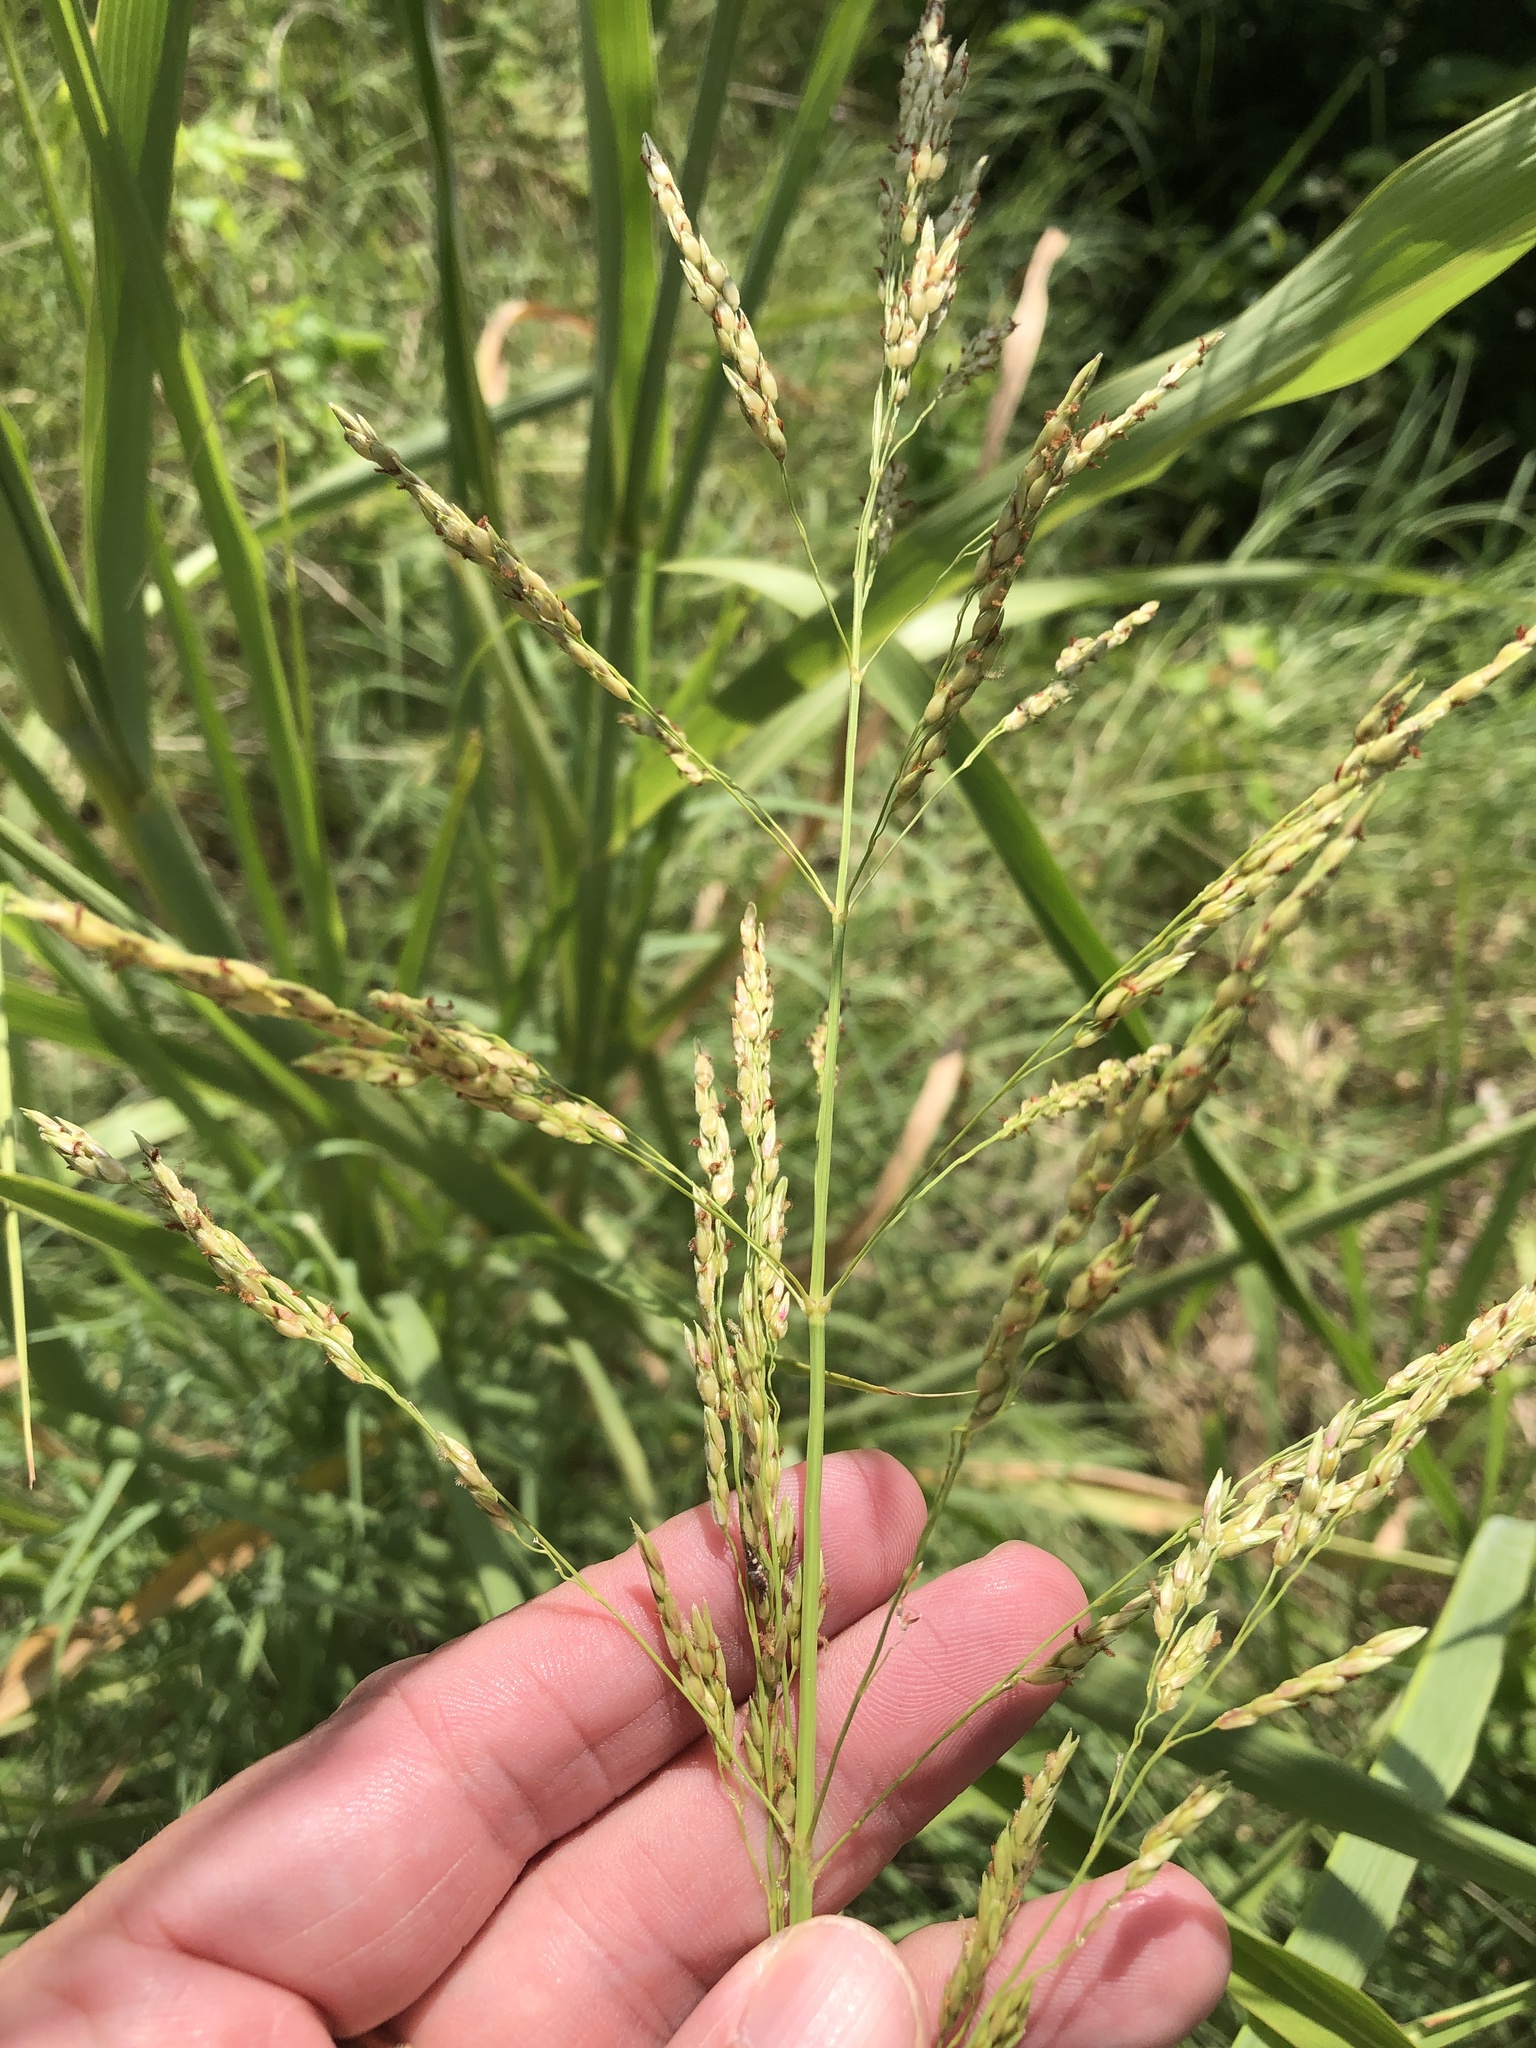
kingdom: Plantae
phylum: Tracheophyta
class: Liliopsida
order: Poales
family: Poaceae
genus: Sorghum
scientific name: Sorghum halepense
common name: Johnson-grass
